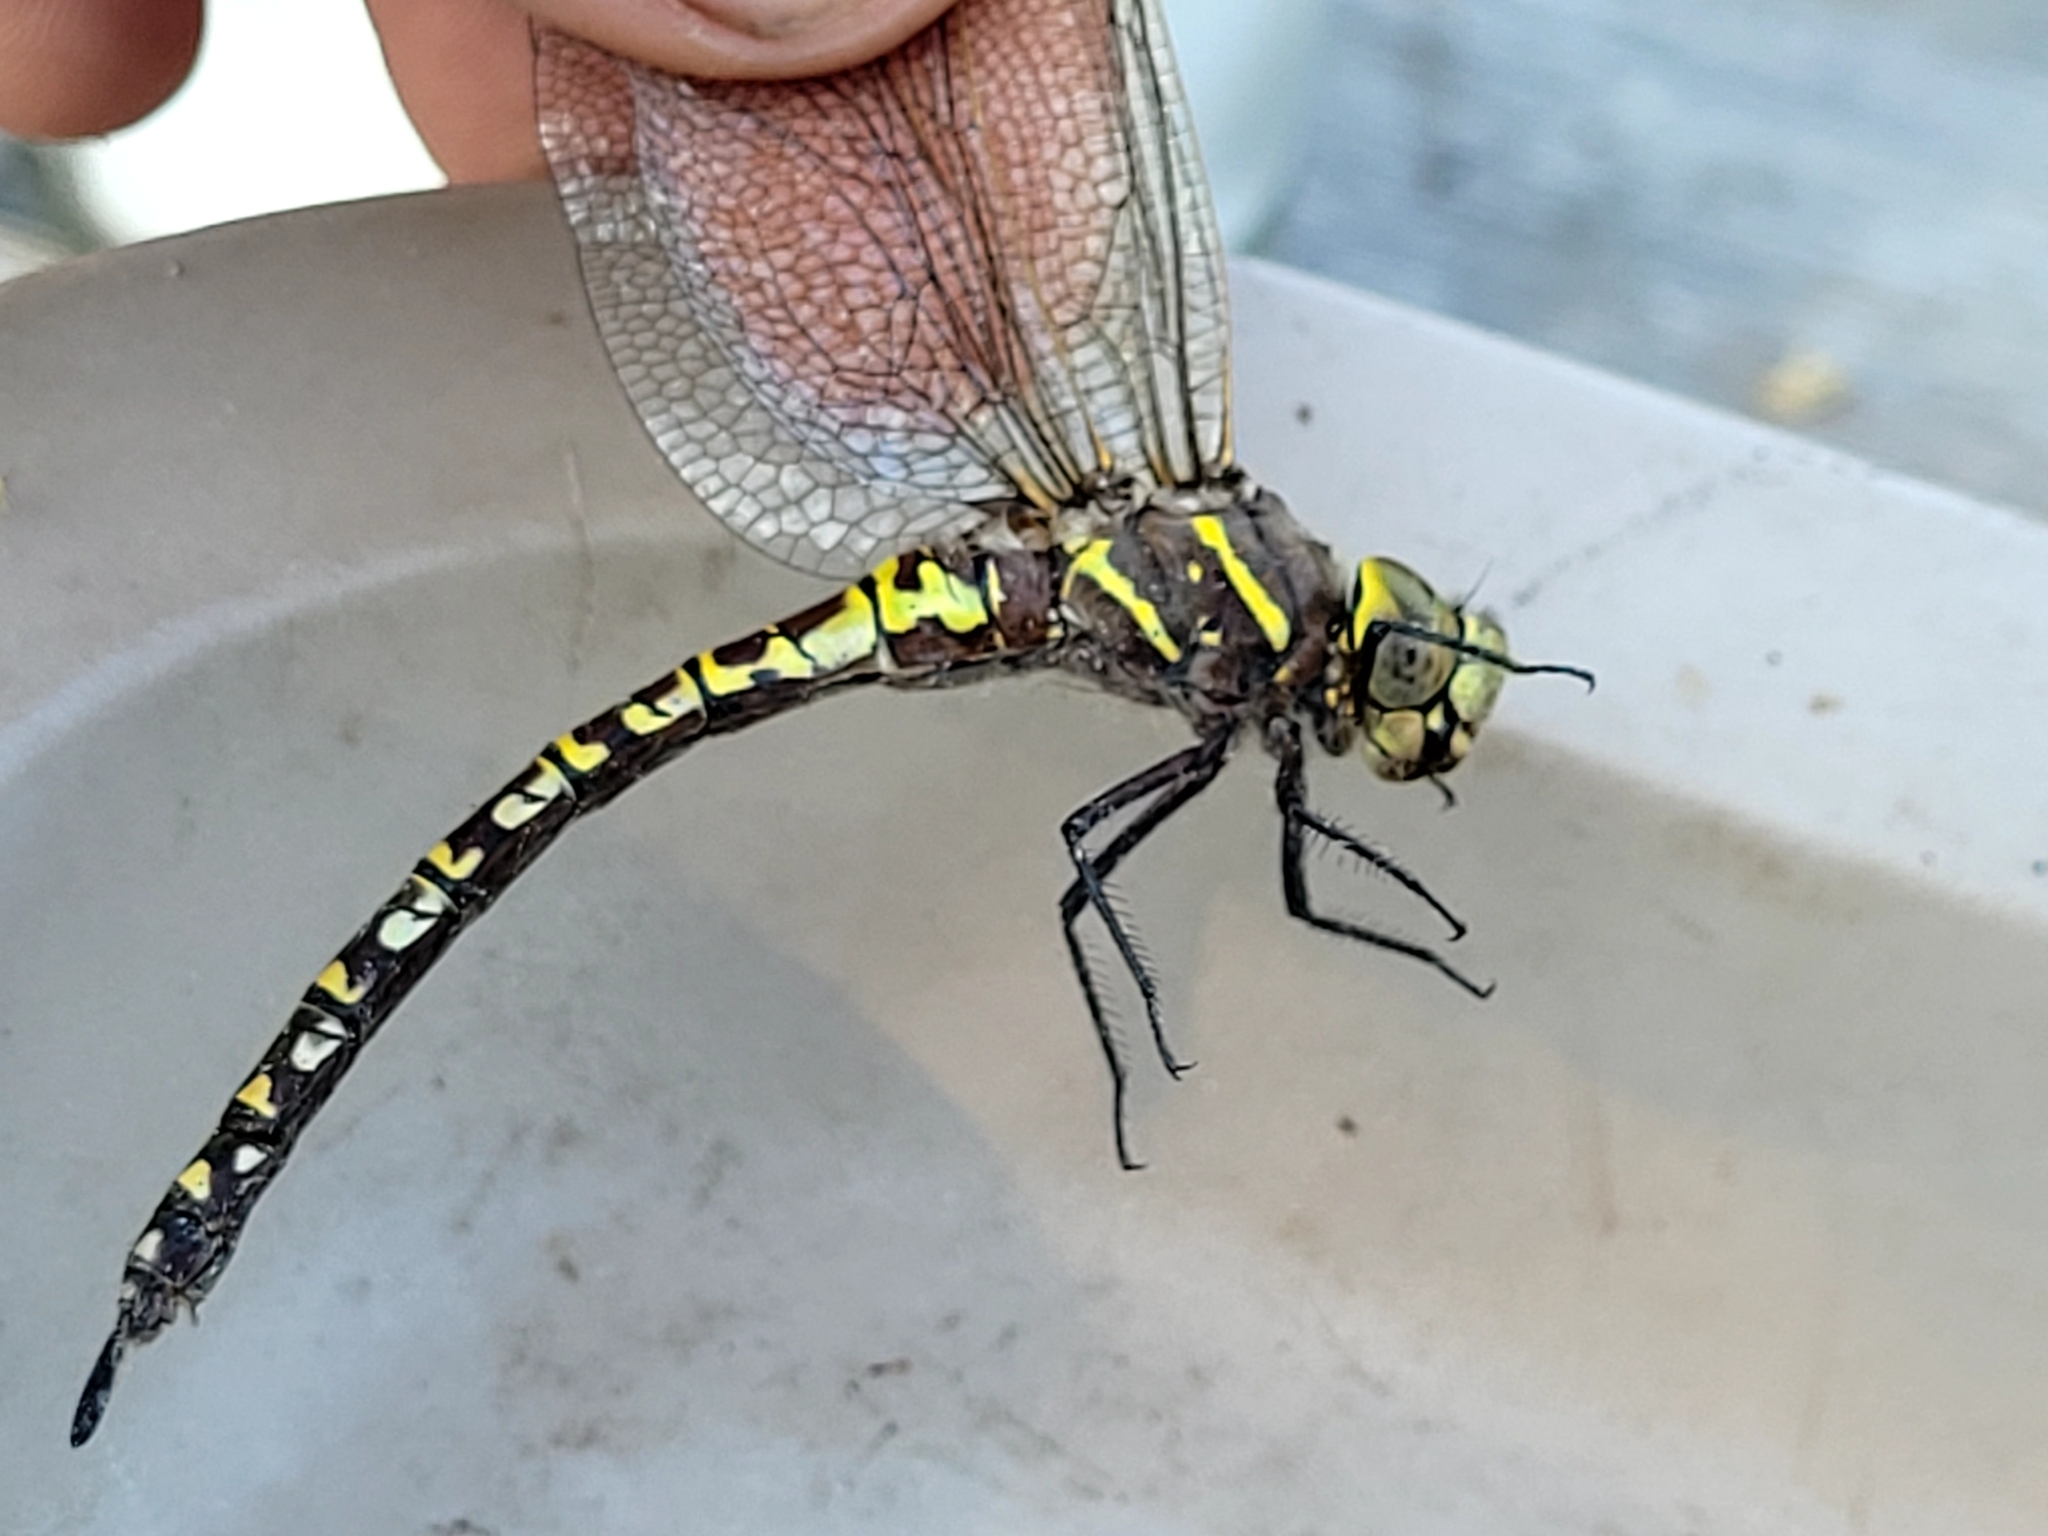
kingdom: Animalia
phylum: Arthropoda
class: Insecta
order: Odonata
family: Aeshnidae
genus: Aeshna
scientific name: Aeshna interrupta
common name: Variable darner
